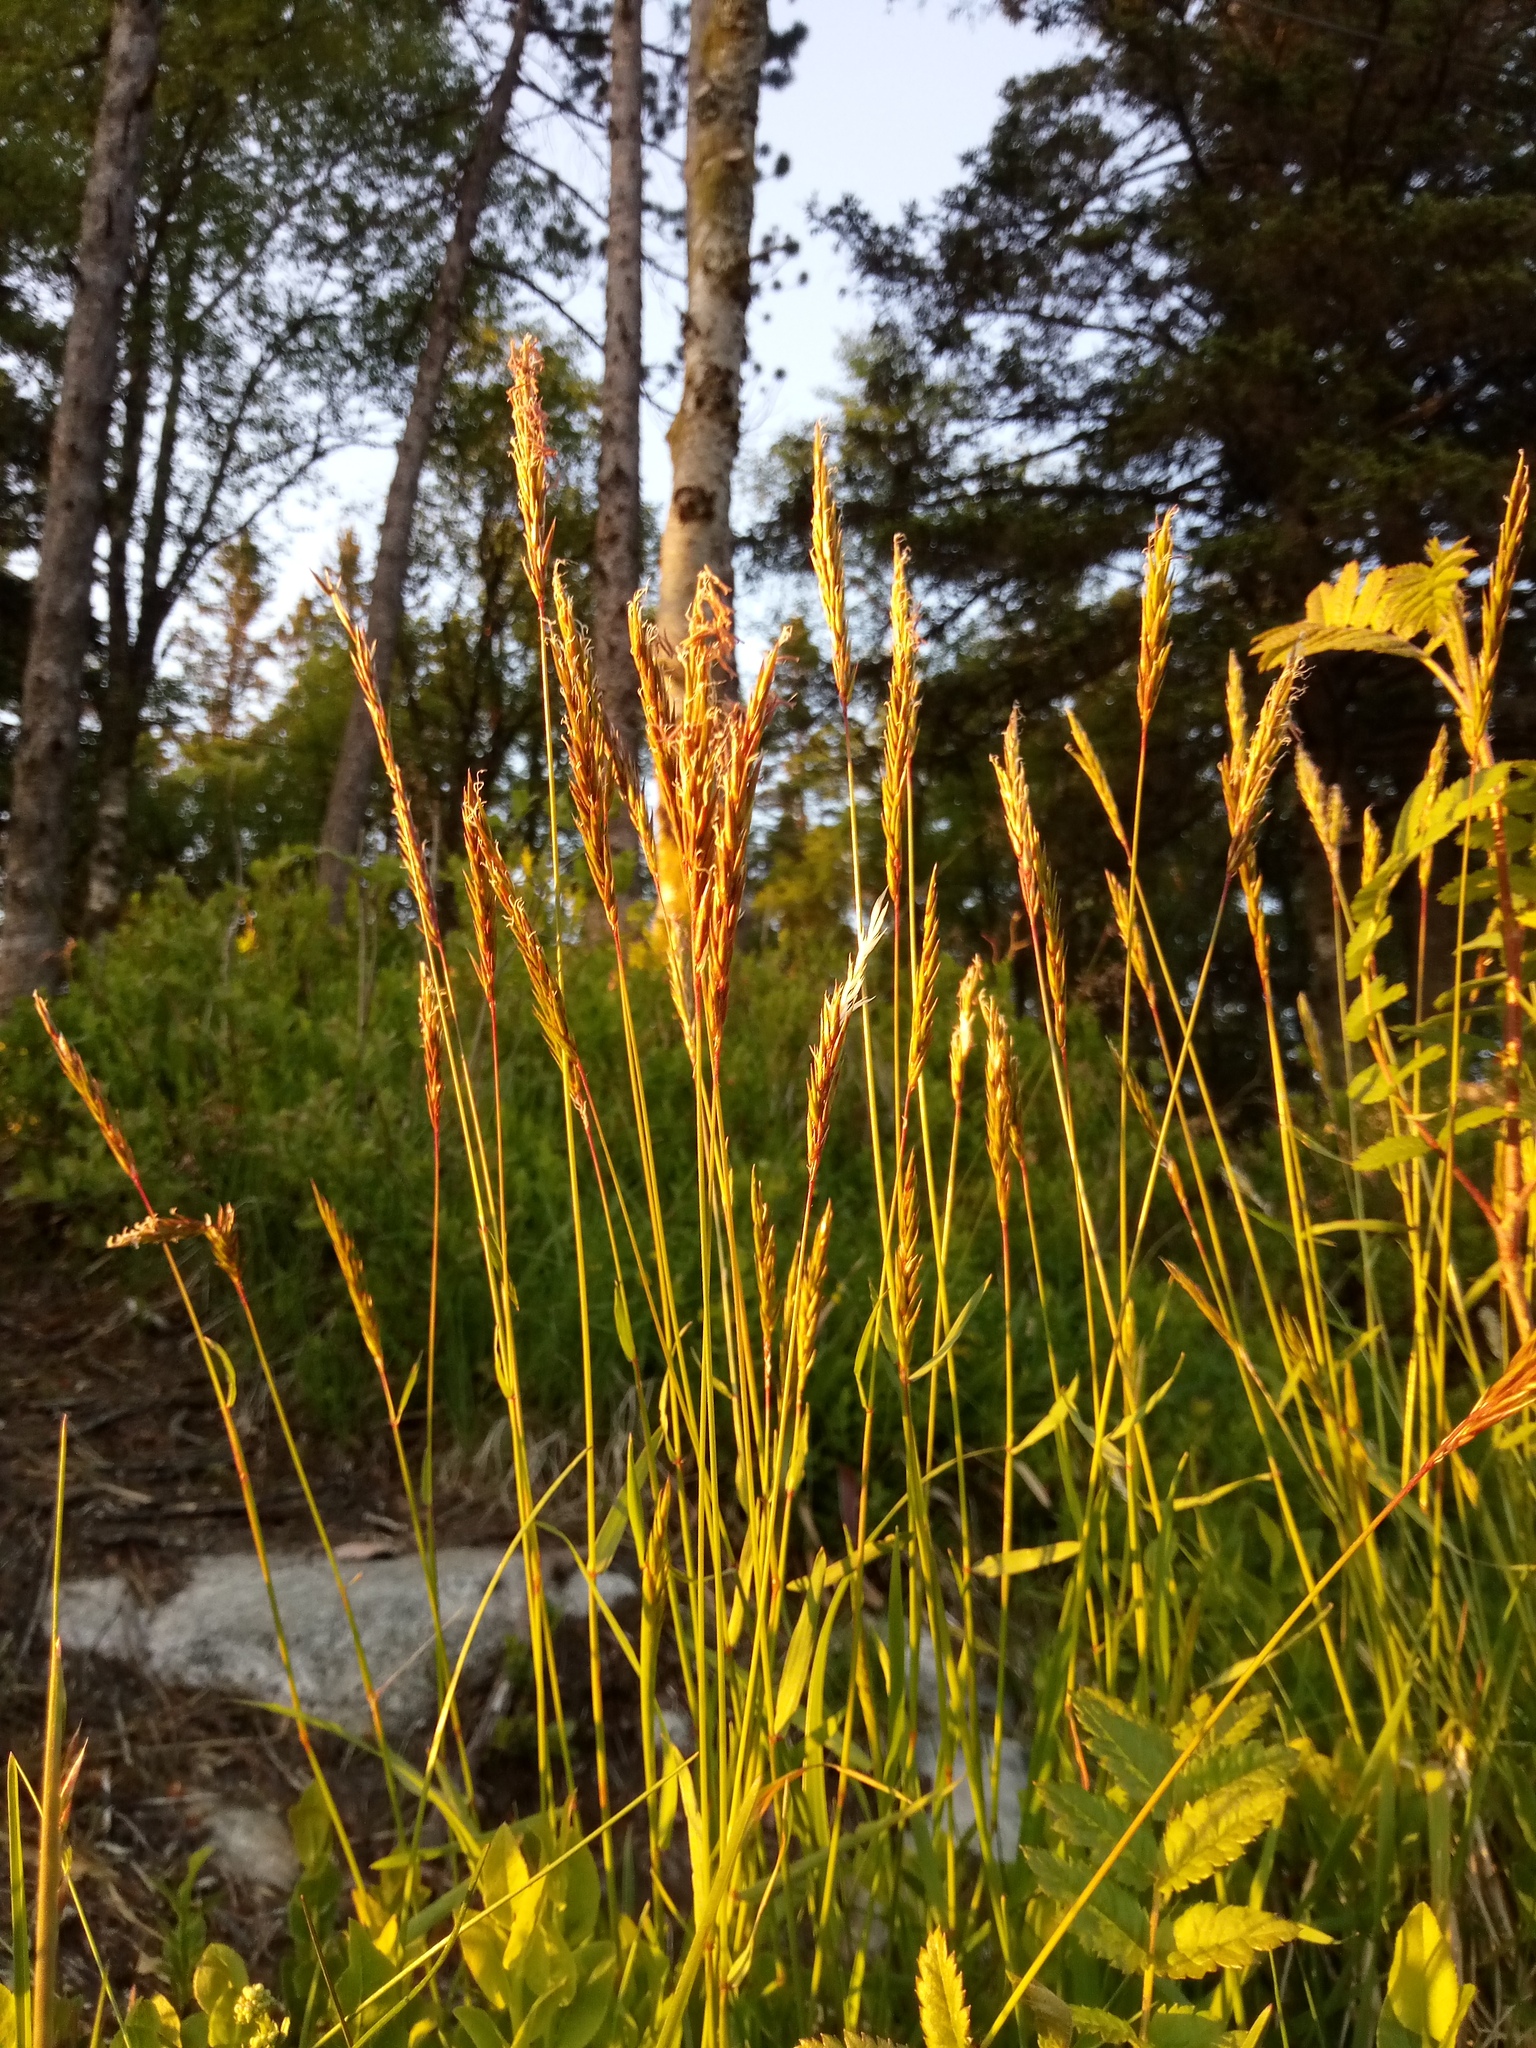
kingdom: Plantae
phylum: Tracheophyta
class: Liliopsida
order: Poales
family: Poaceae
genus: Anthoxanthum
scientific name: Anthoxanthum odoratum
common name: Sweet vernalgrass
